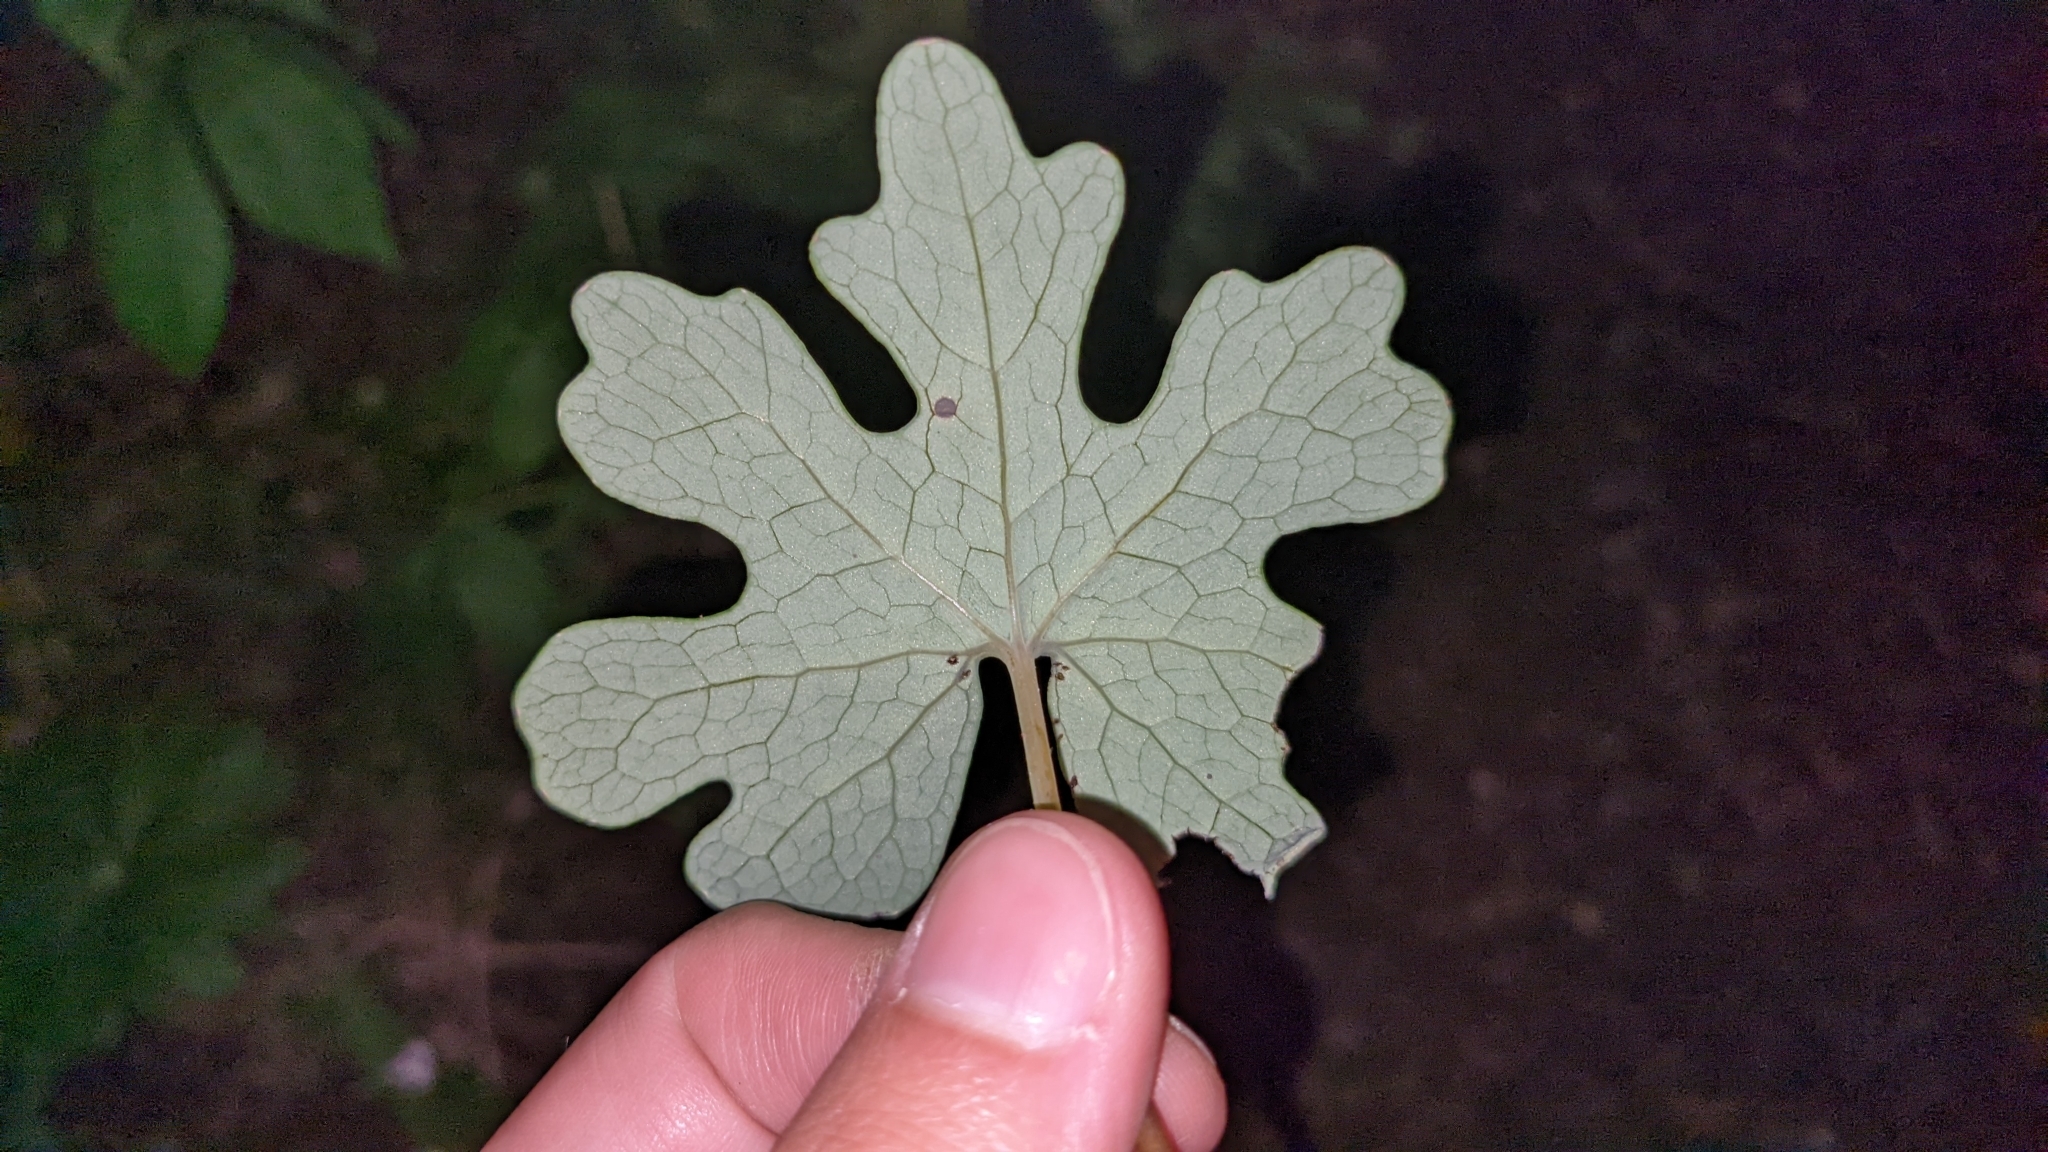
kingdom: Plantae
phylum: Tracheophyta
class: Magnoliopsida
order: Ranunculales
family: Papaveraceae
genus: Sanguinaria
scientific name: Sanguinaria canadensis
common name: Bloodroot
